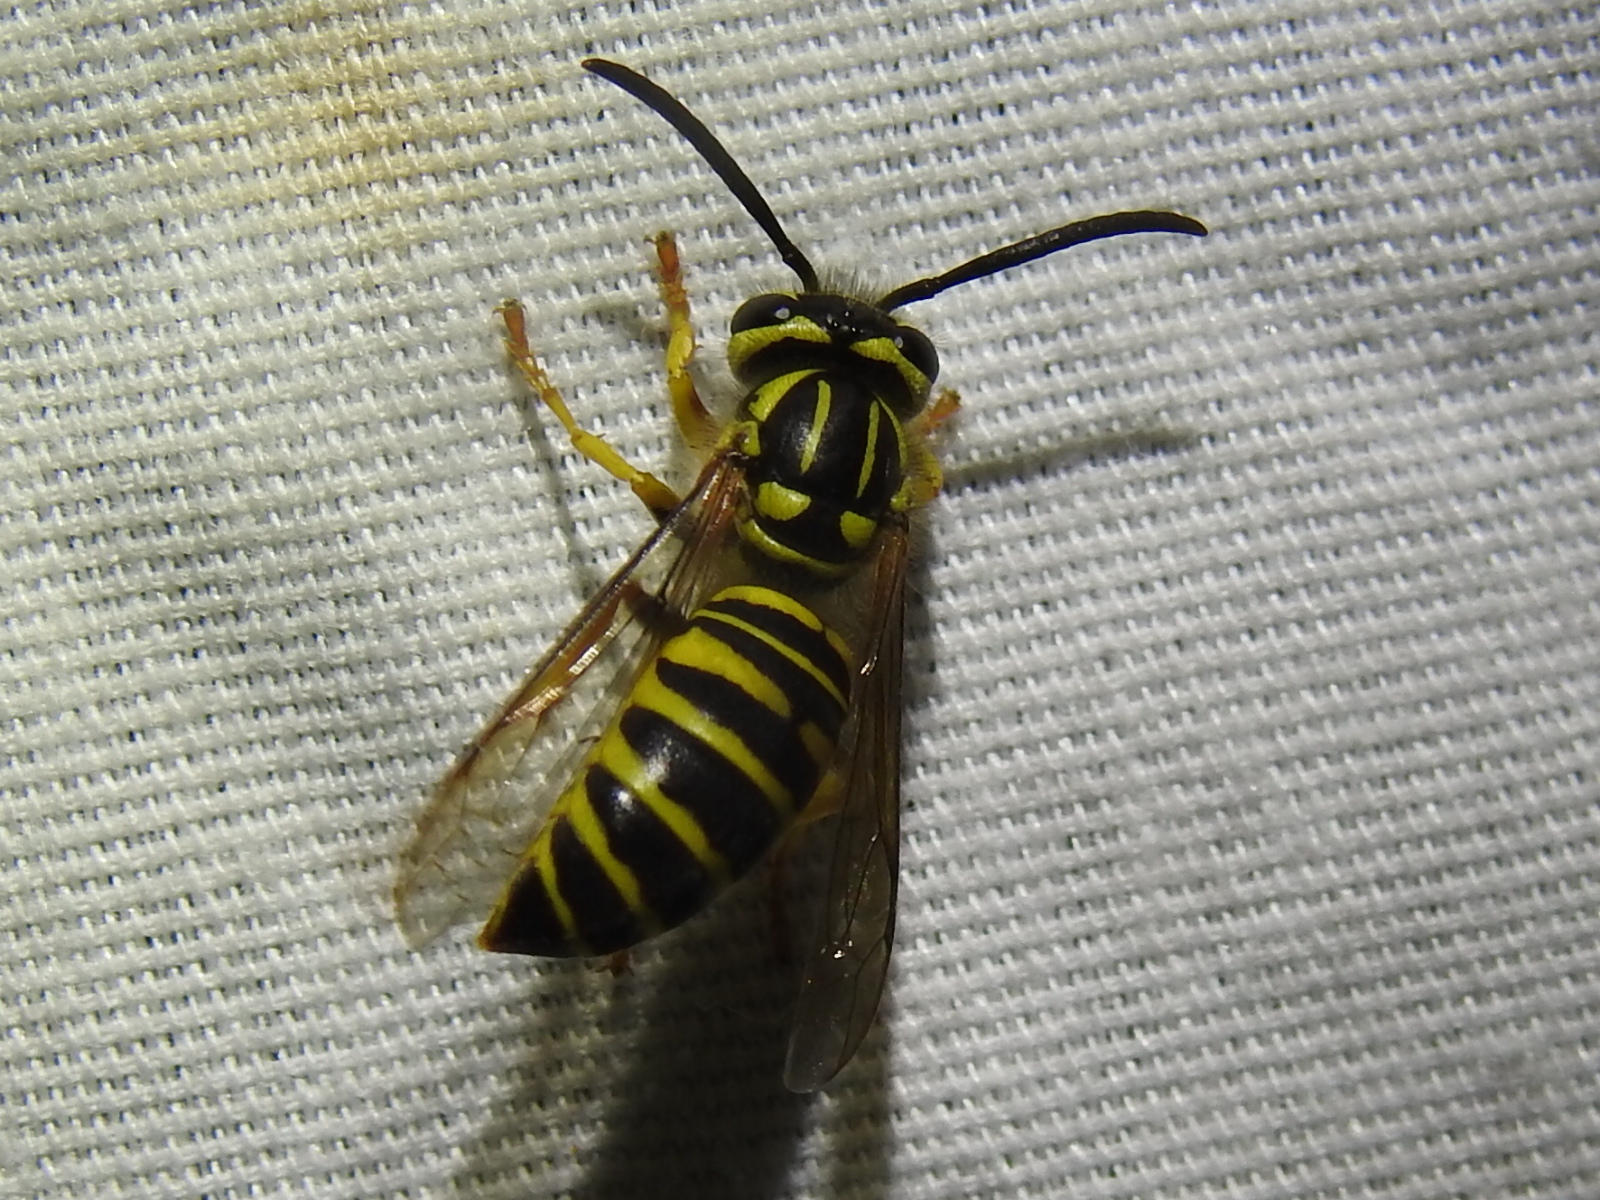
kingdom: Animalia
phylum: Arthropoda
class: Insecta
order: Hymenoptera
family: Vespidae
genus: Vespula
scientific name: Vespula squamosa
